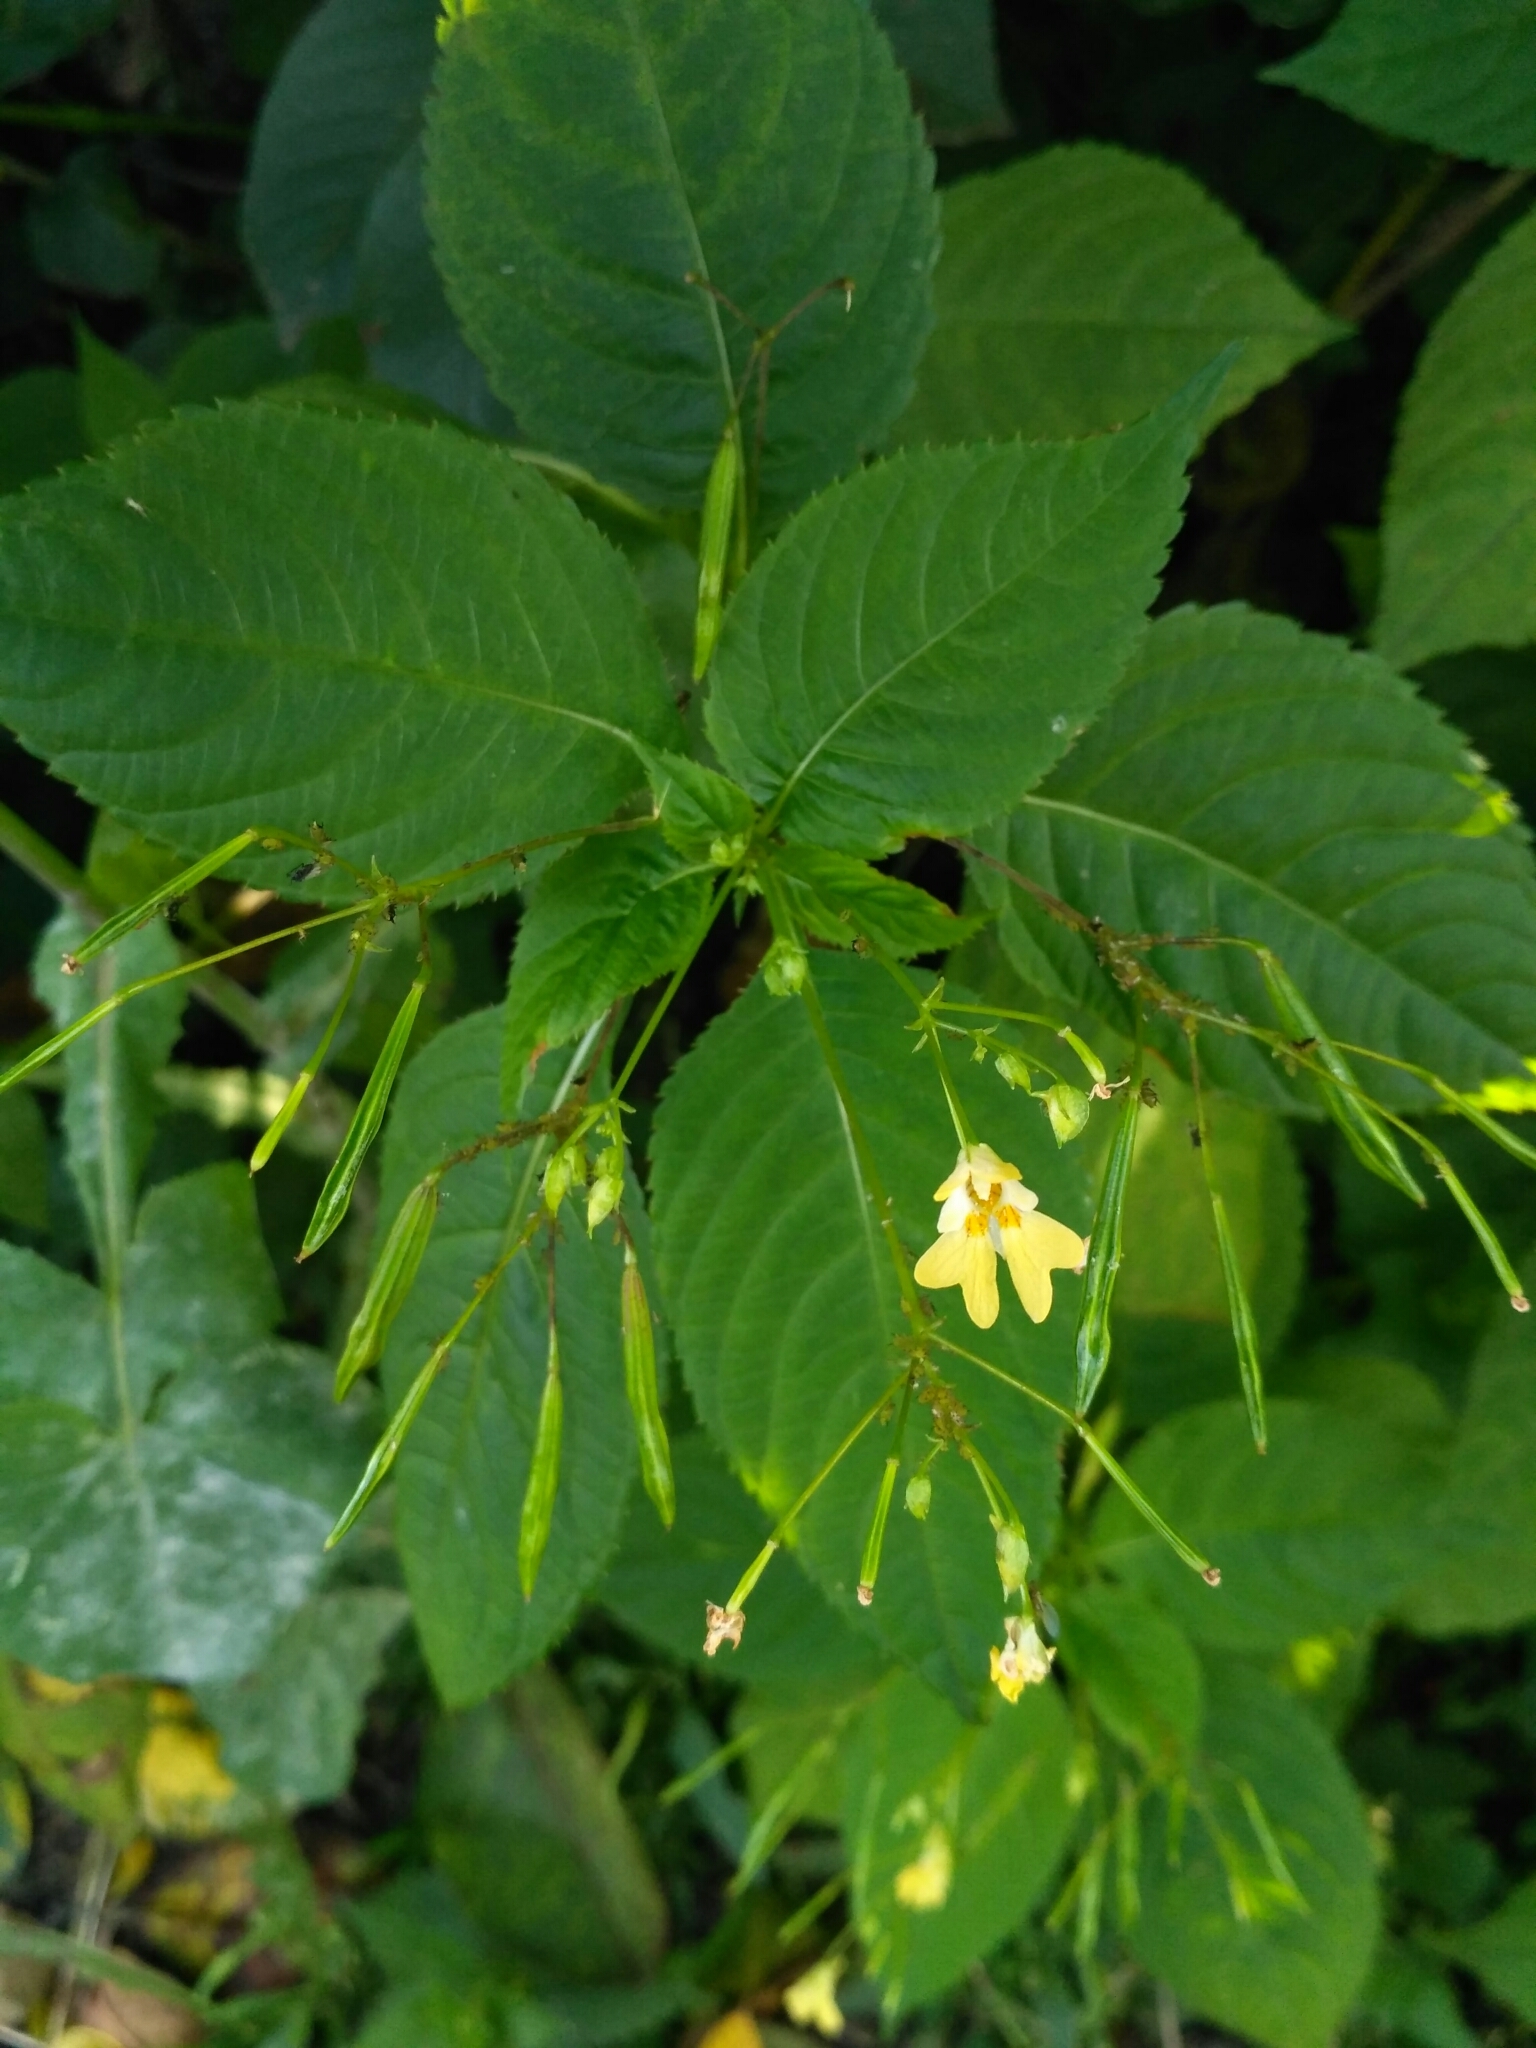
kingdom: Plantae
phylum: Tracheophyta
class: Magnoliopsida
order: Ericales
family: Balsaminaceae
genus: Impatiens
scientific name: Impatiens parviflora
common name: Small balsam
